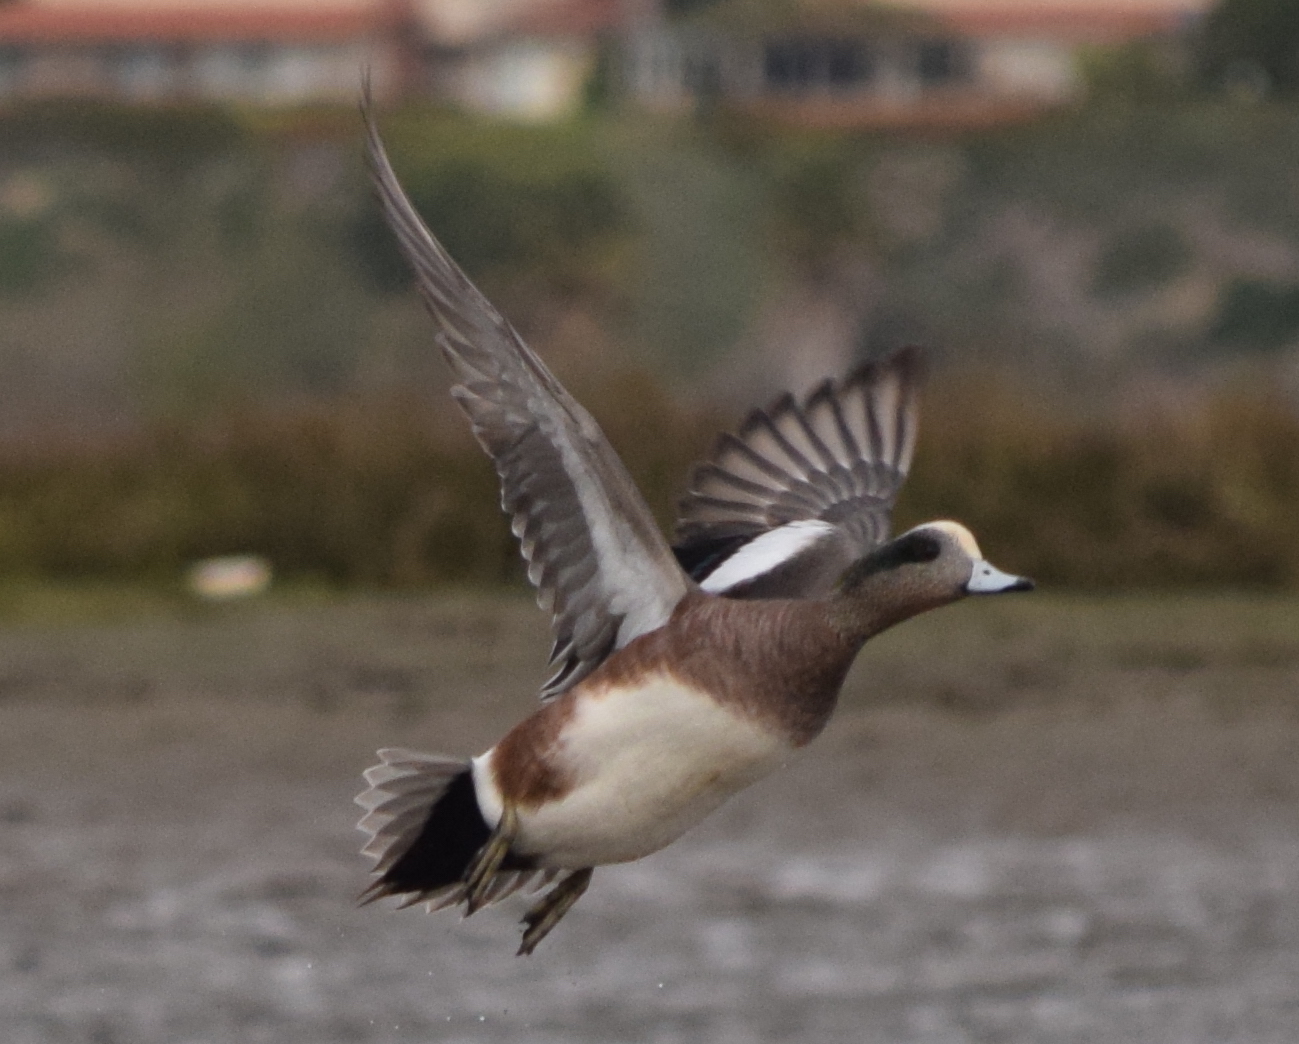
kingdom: Animalia
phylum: Chordata
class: Aves
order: Anseriformes
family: Anatidae
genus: Mareca
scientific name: Mareca americana
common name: American wigeon
